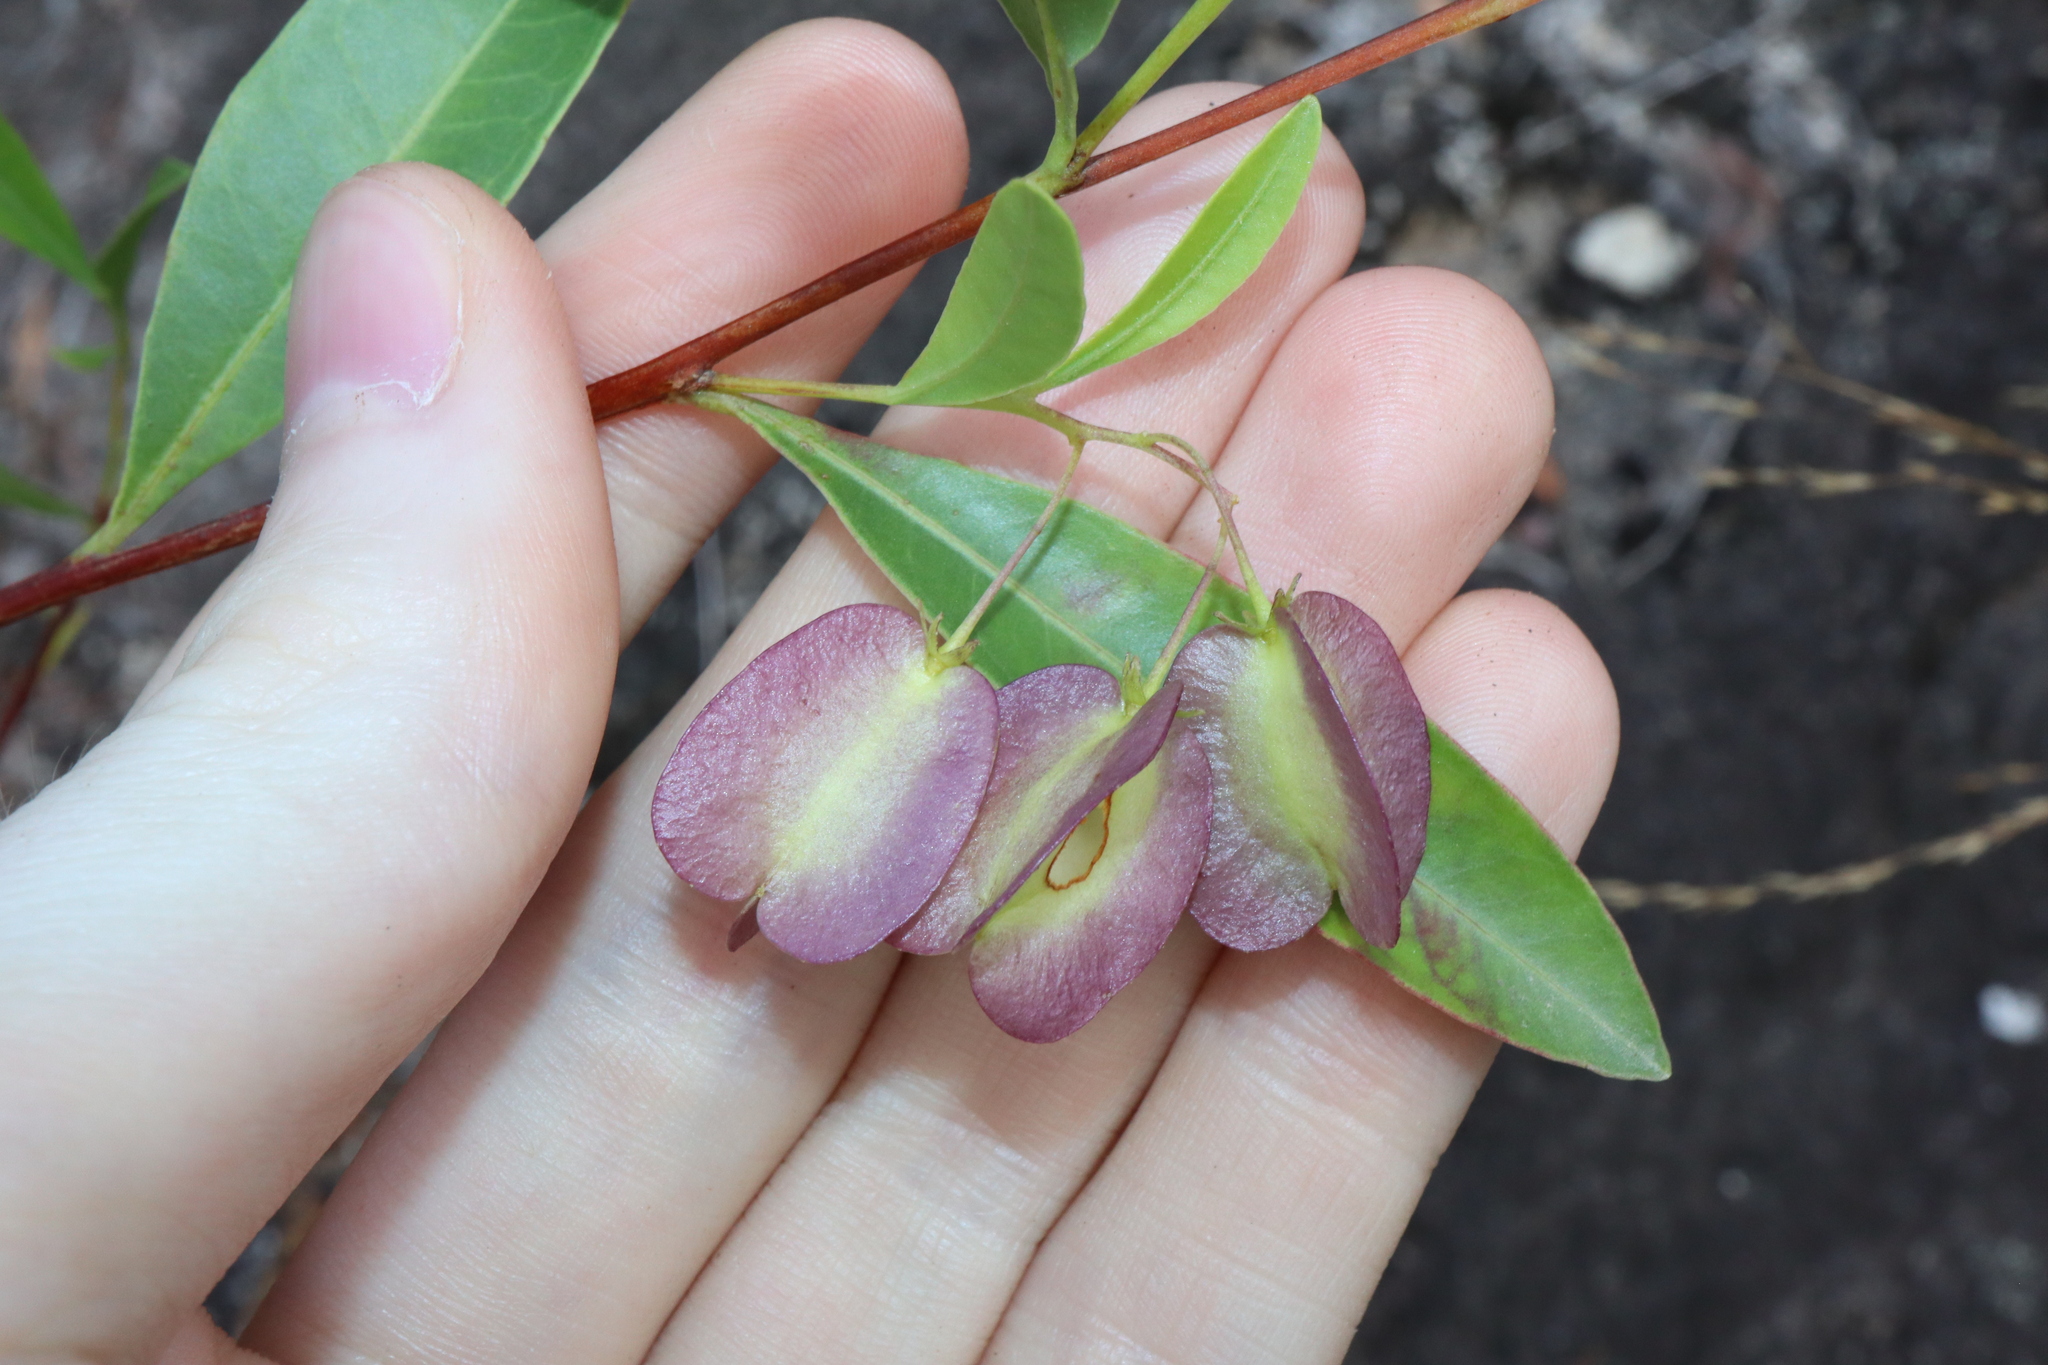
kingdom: Plantae
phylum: Tracheophyta
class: Magnoliopsida
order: Sapindales
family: Sapindaceae
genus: Dodonaea
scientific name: Dodonaea lanceolata
